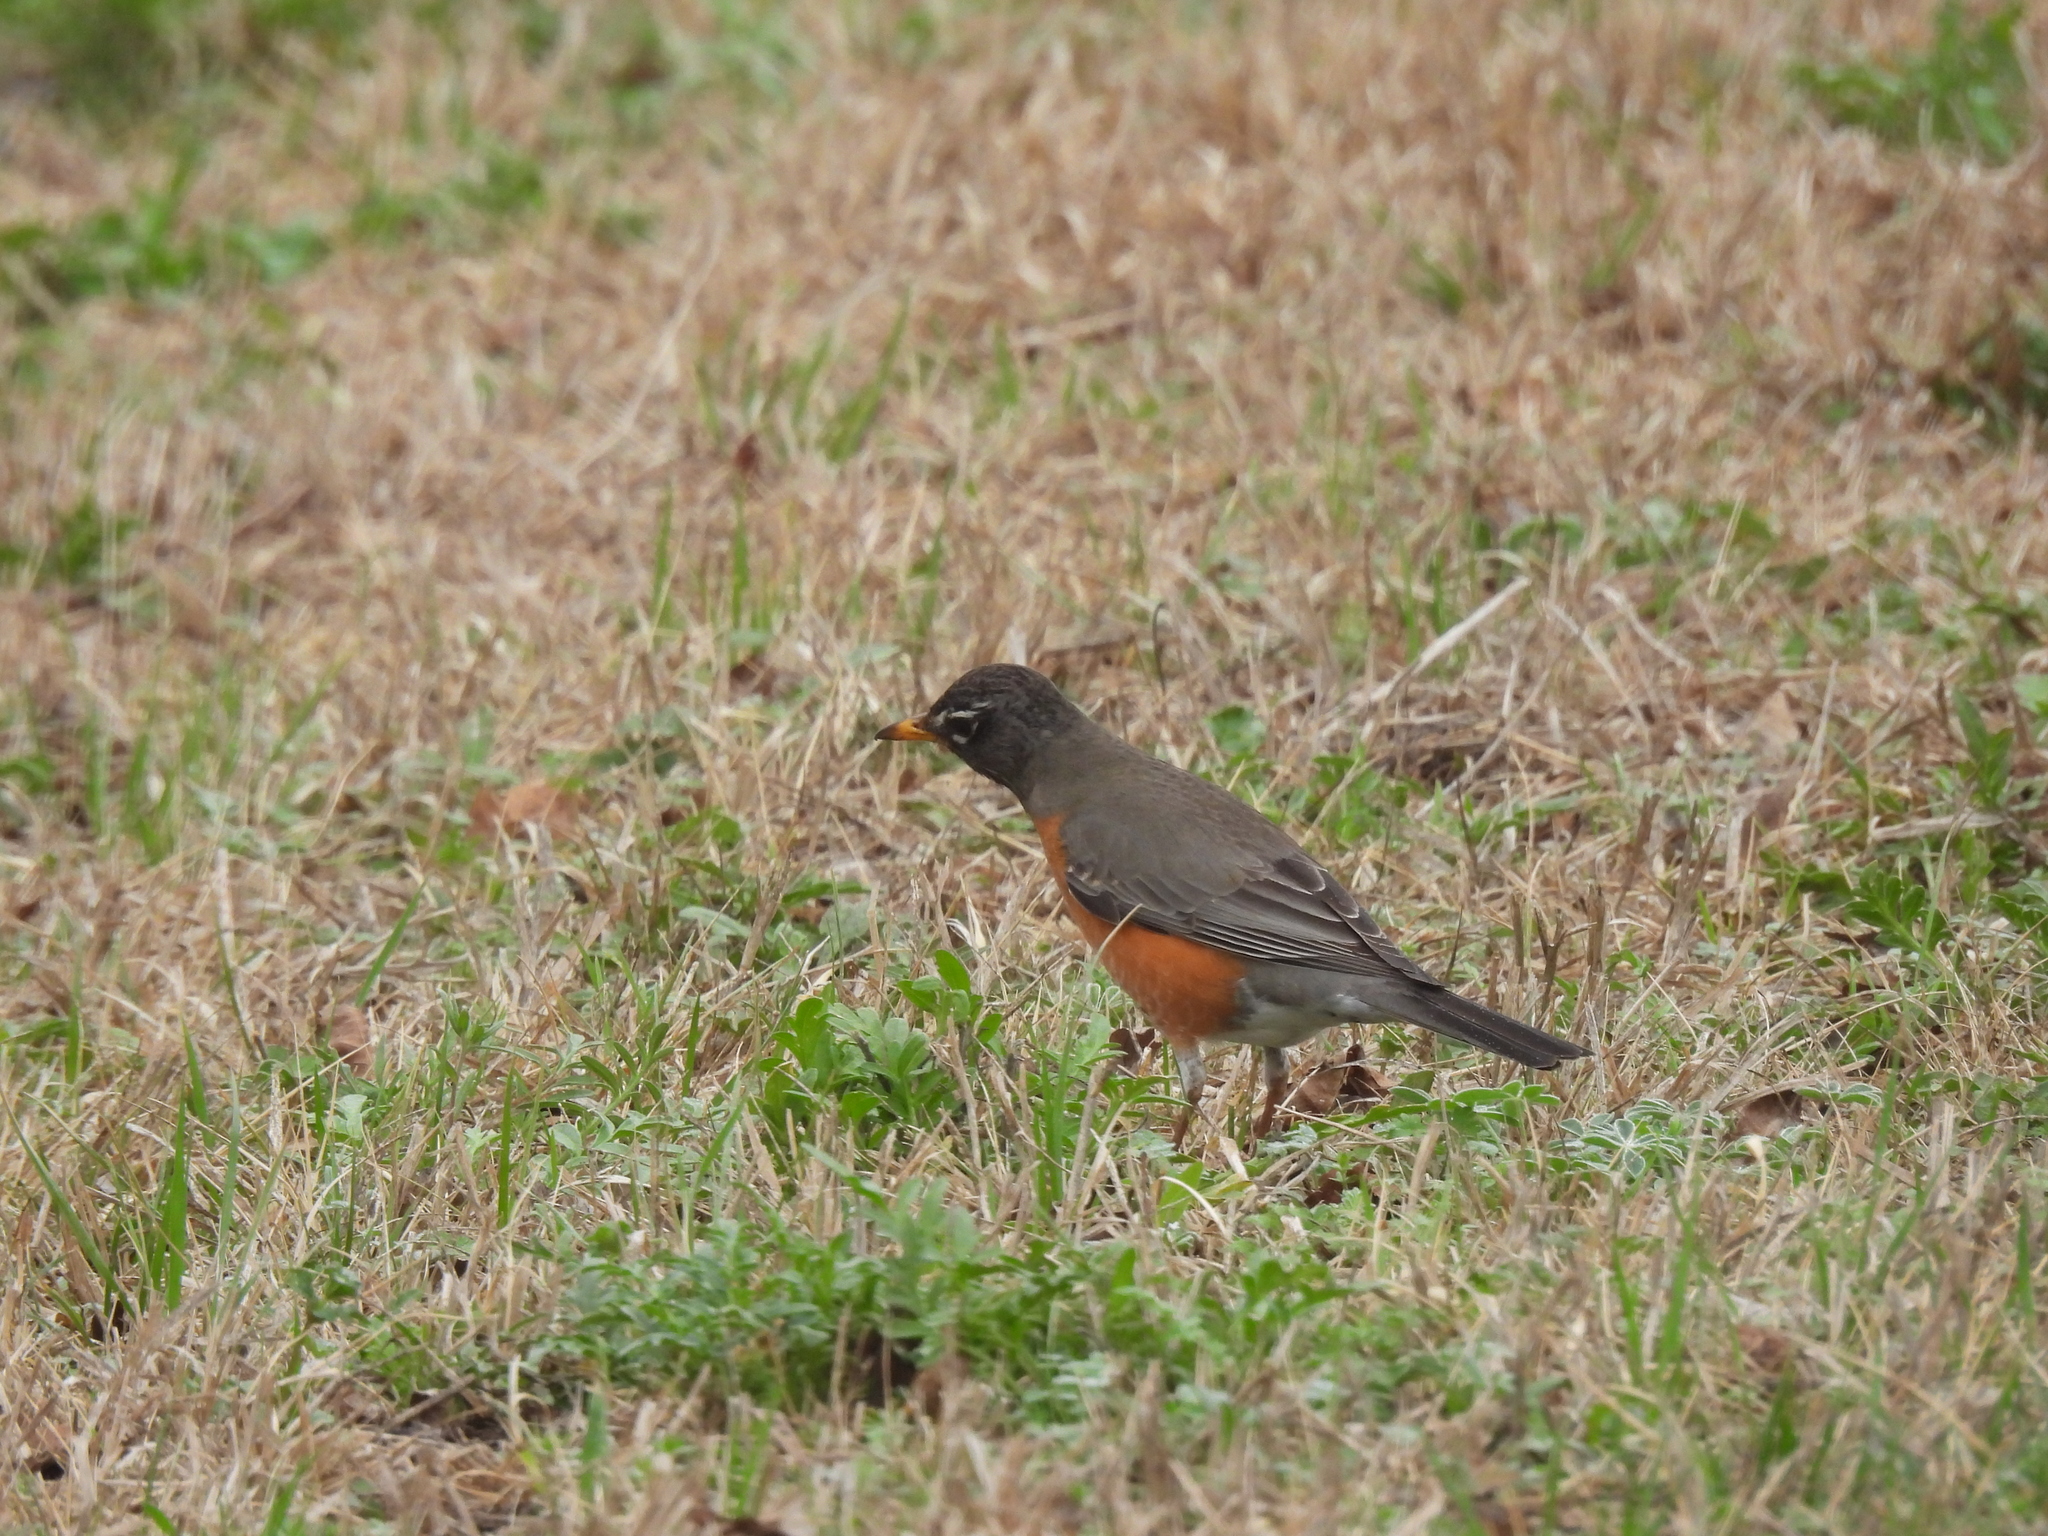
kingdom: Animalia
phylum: Chordata
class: Aves
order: Passeriformes
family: Turdidae
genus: Turdus
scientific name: Turdus migratorius
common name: American robin
